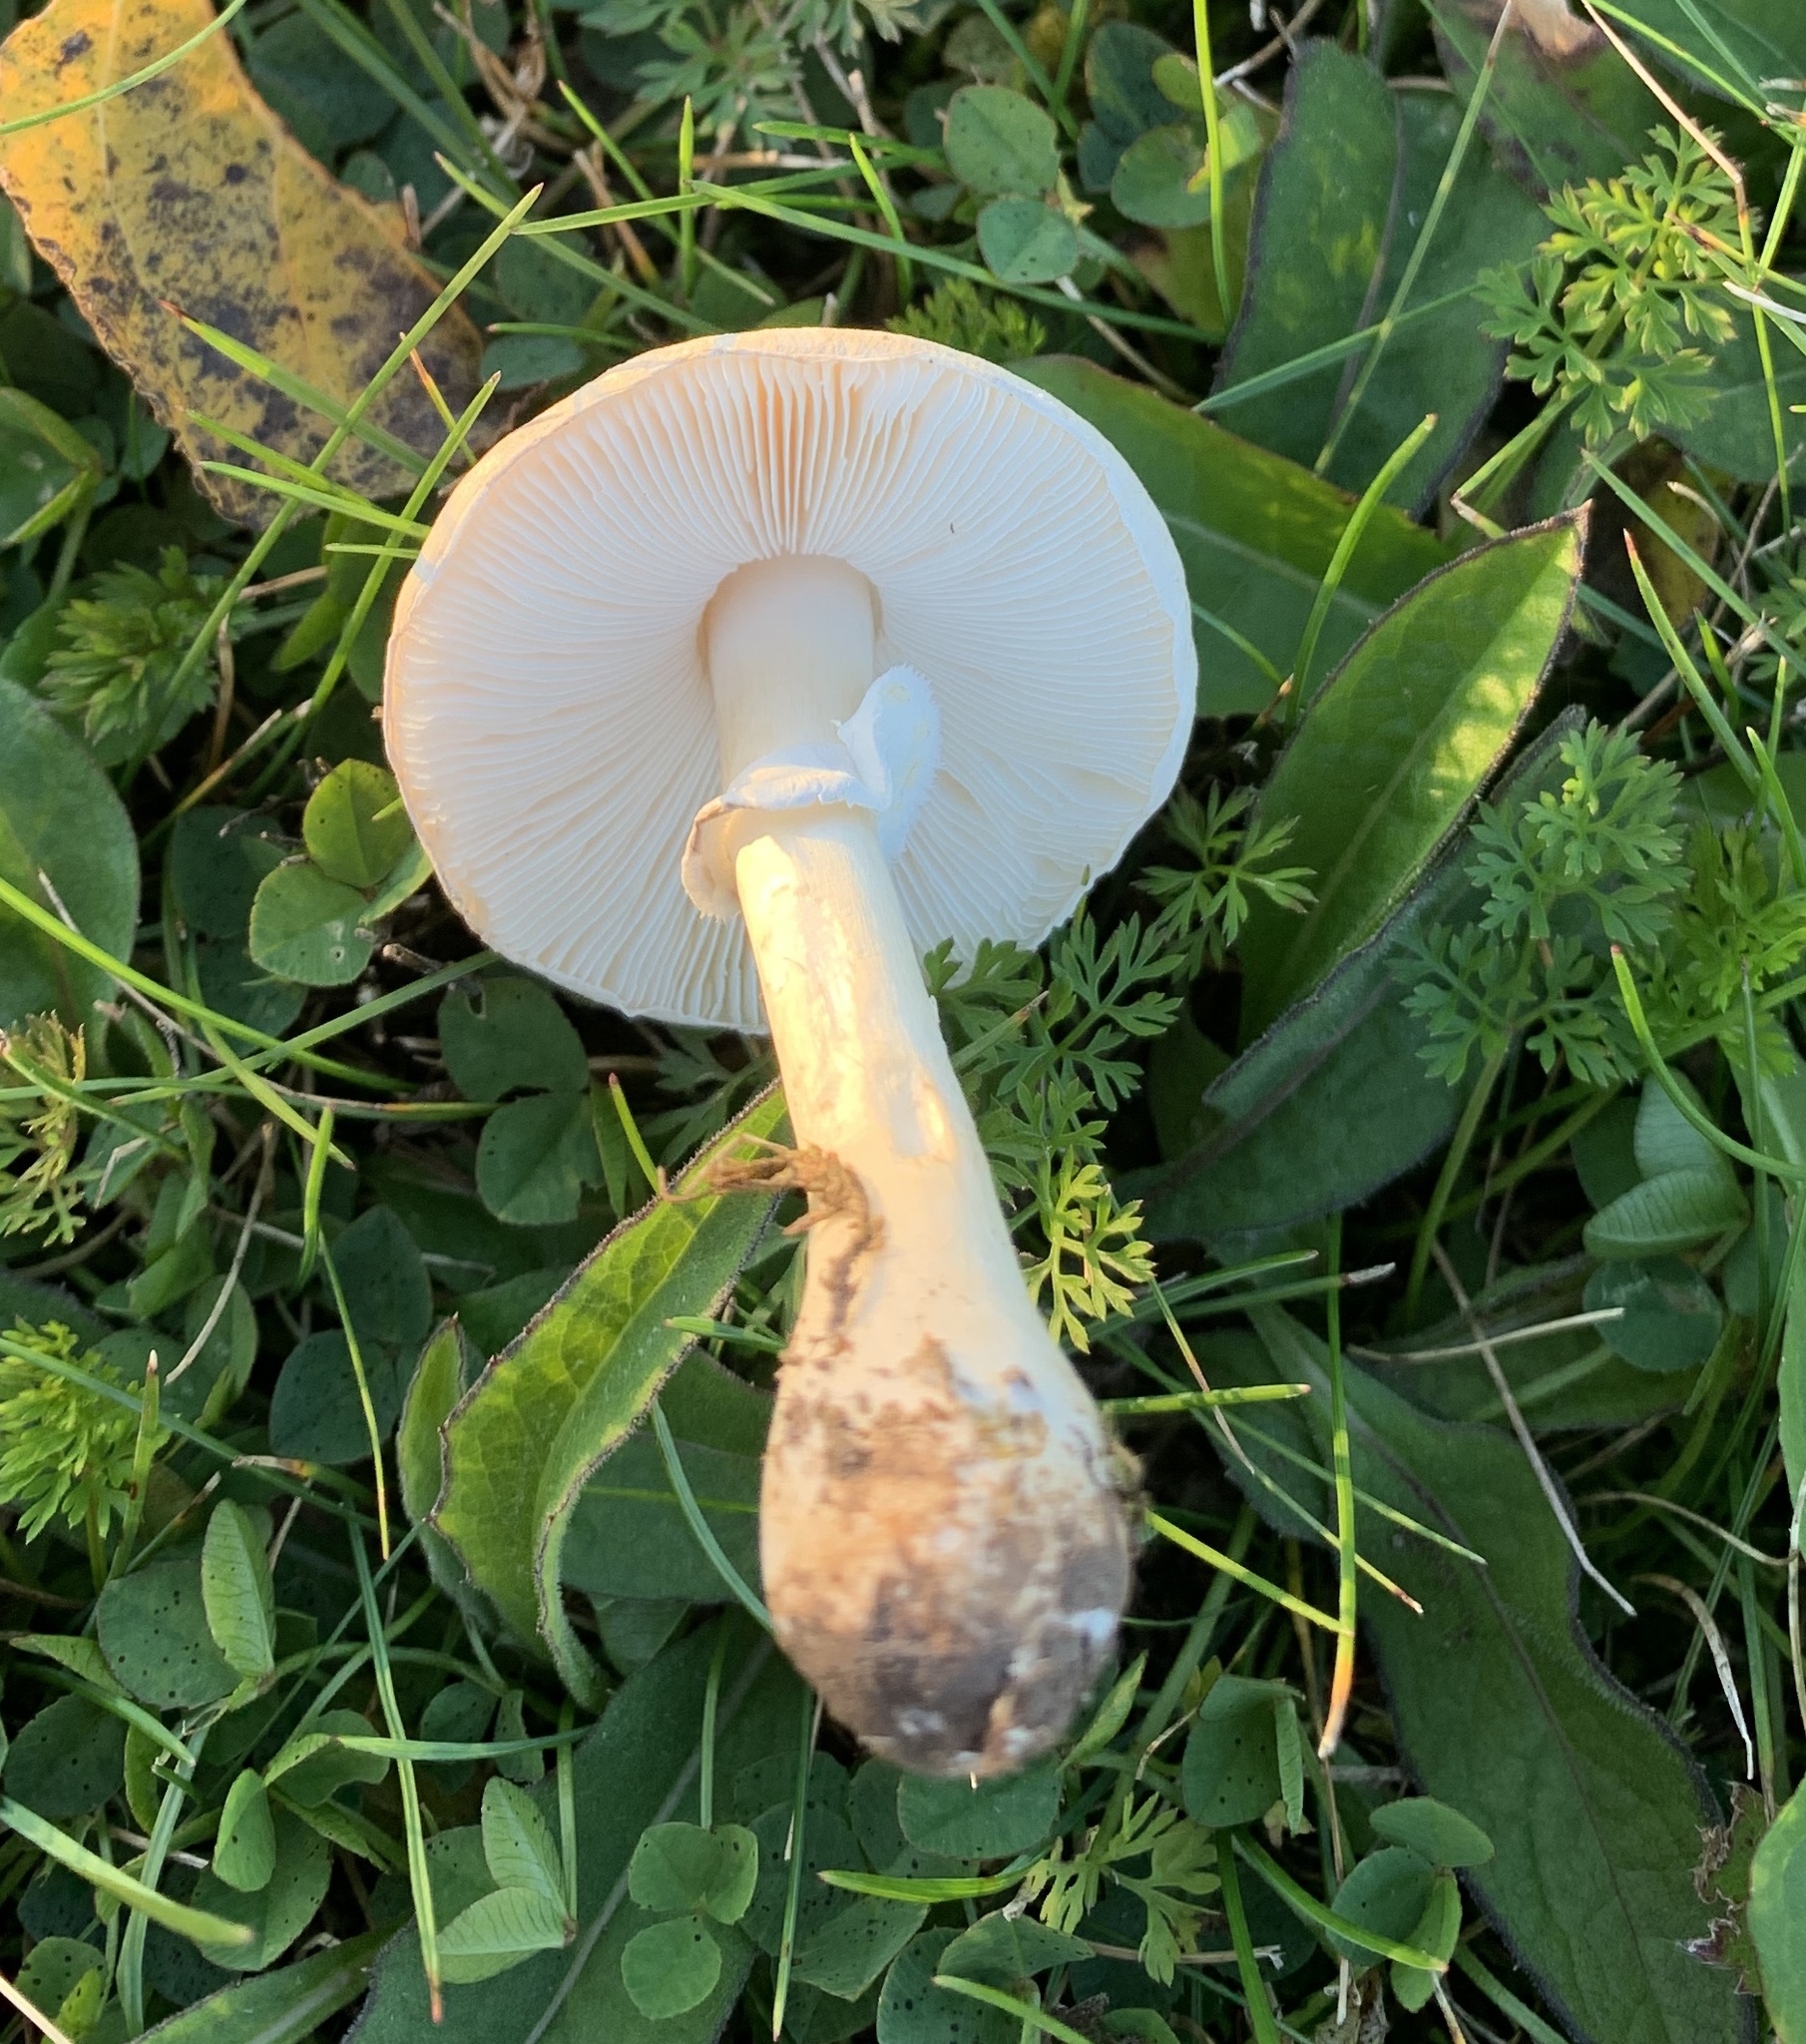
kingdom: Fungi
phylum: Basidiomycota
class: Agaricomycetes
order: Agaricales
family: Agaricaceae
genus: Leucoagaricus
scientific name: Leucoagaricus leucothites
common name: White dapperling
